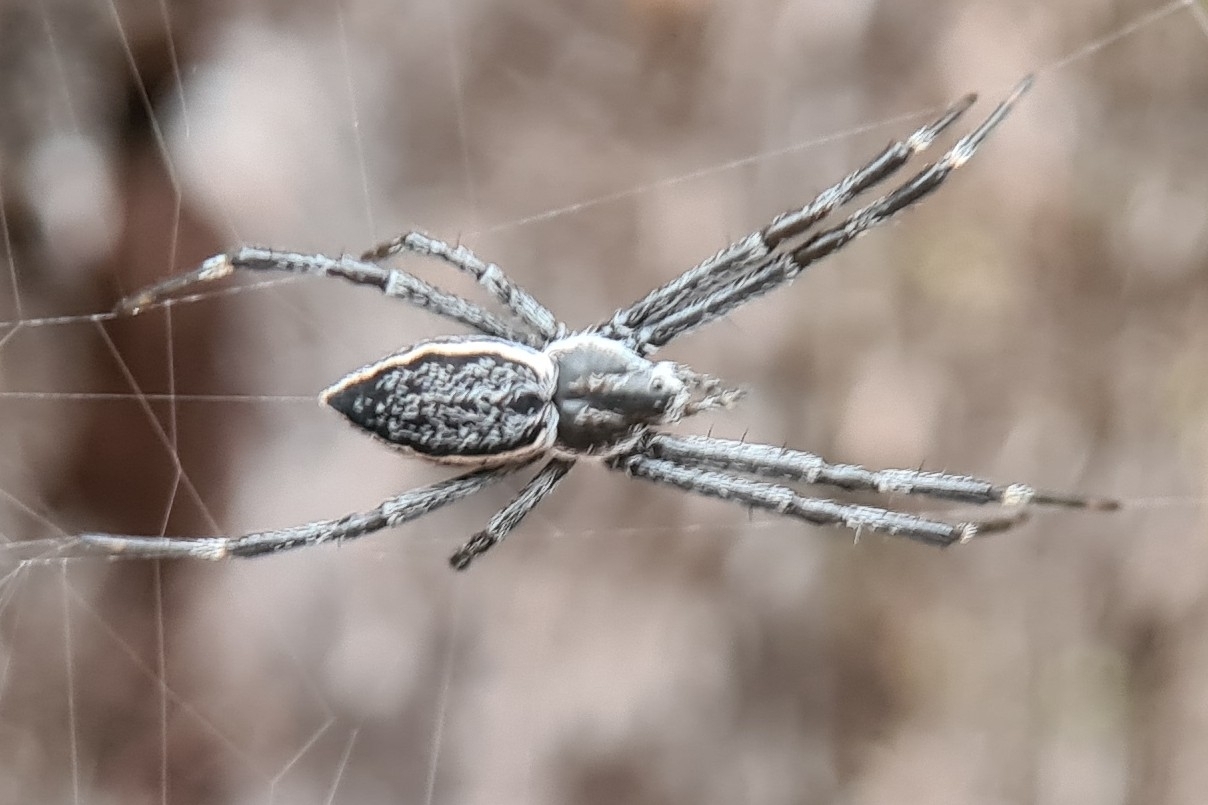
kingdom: Animalia
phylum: Arthropoda
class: Arachnida
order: Araneae
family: Araneidae
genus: Argiope
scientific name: Argiope ocyaloides
